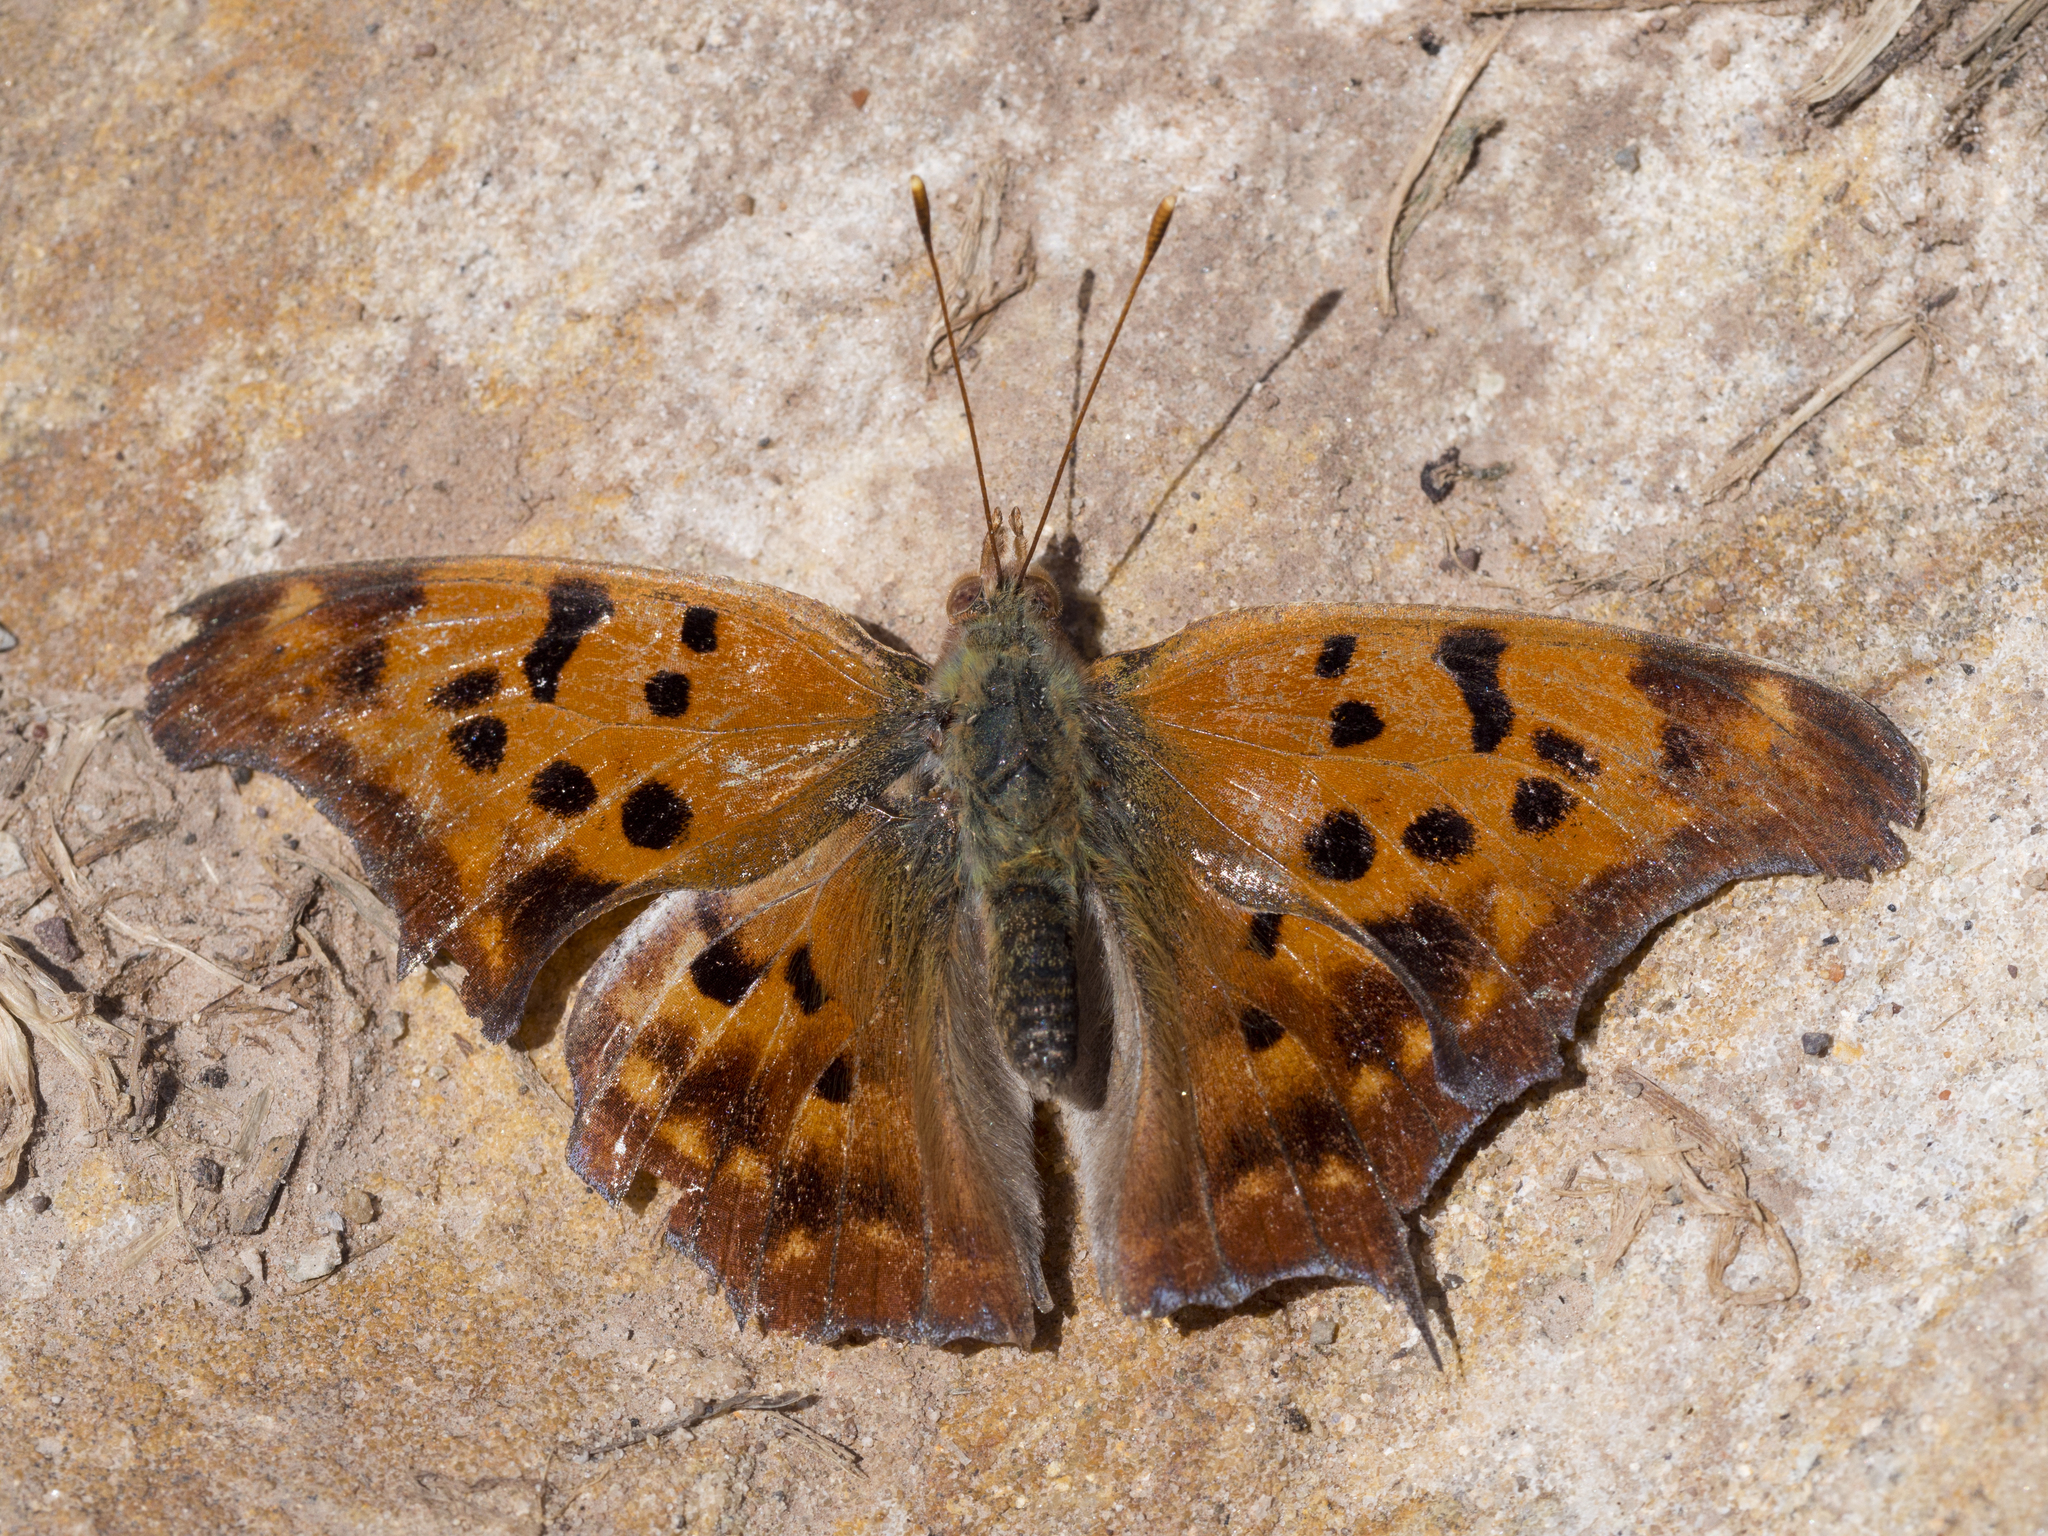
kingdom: Animalia
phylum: Arthropoda
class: Insecta
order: Lepidoptera
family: Nymphalidae
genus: Polygonia
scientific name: Polygonia interrogationis
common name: Question mark
